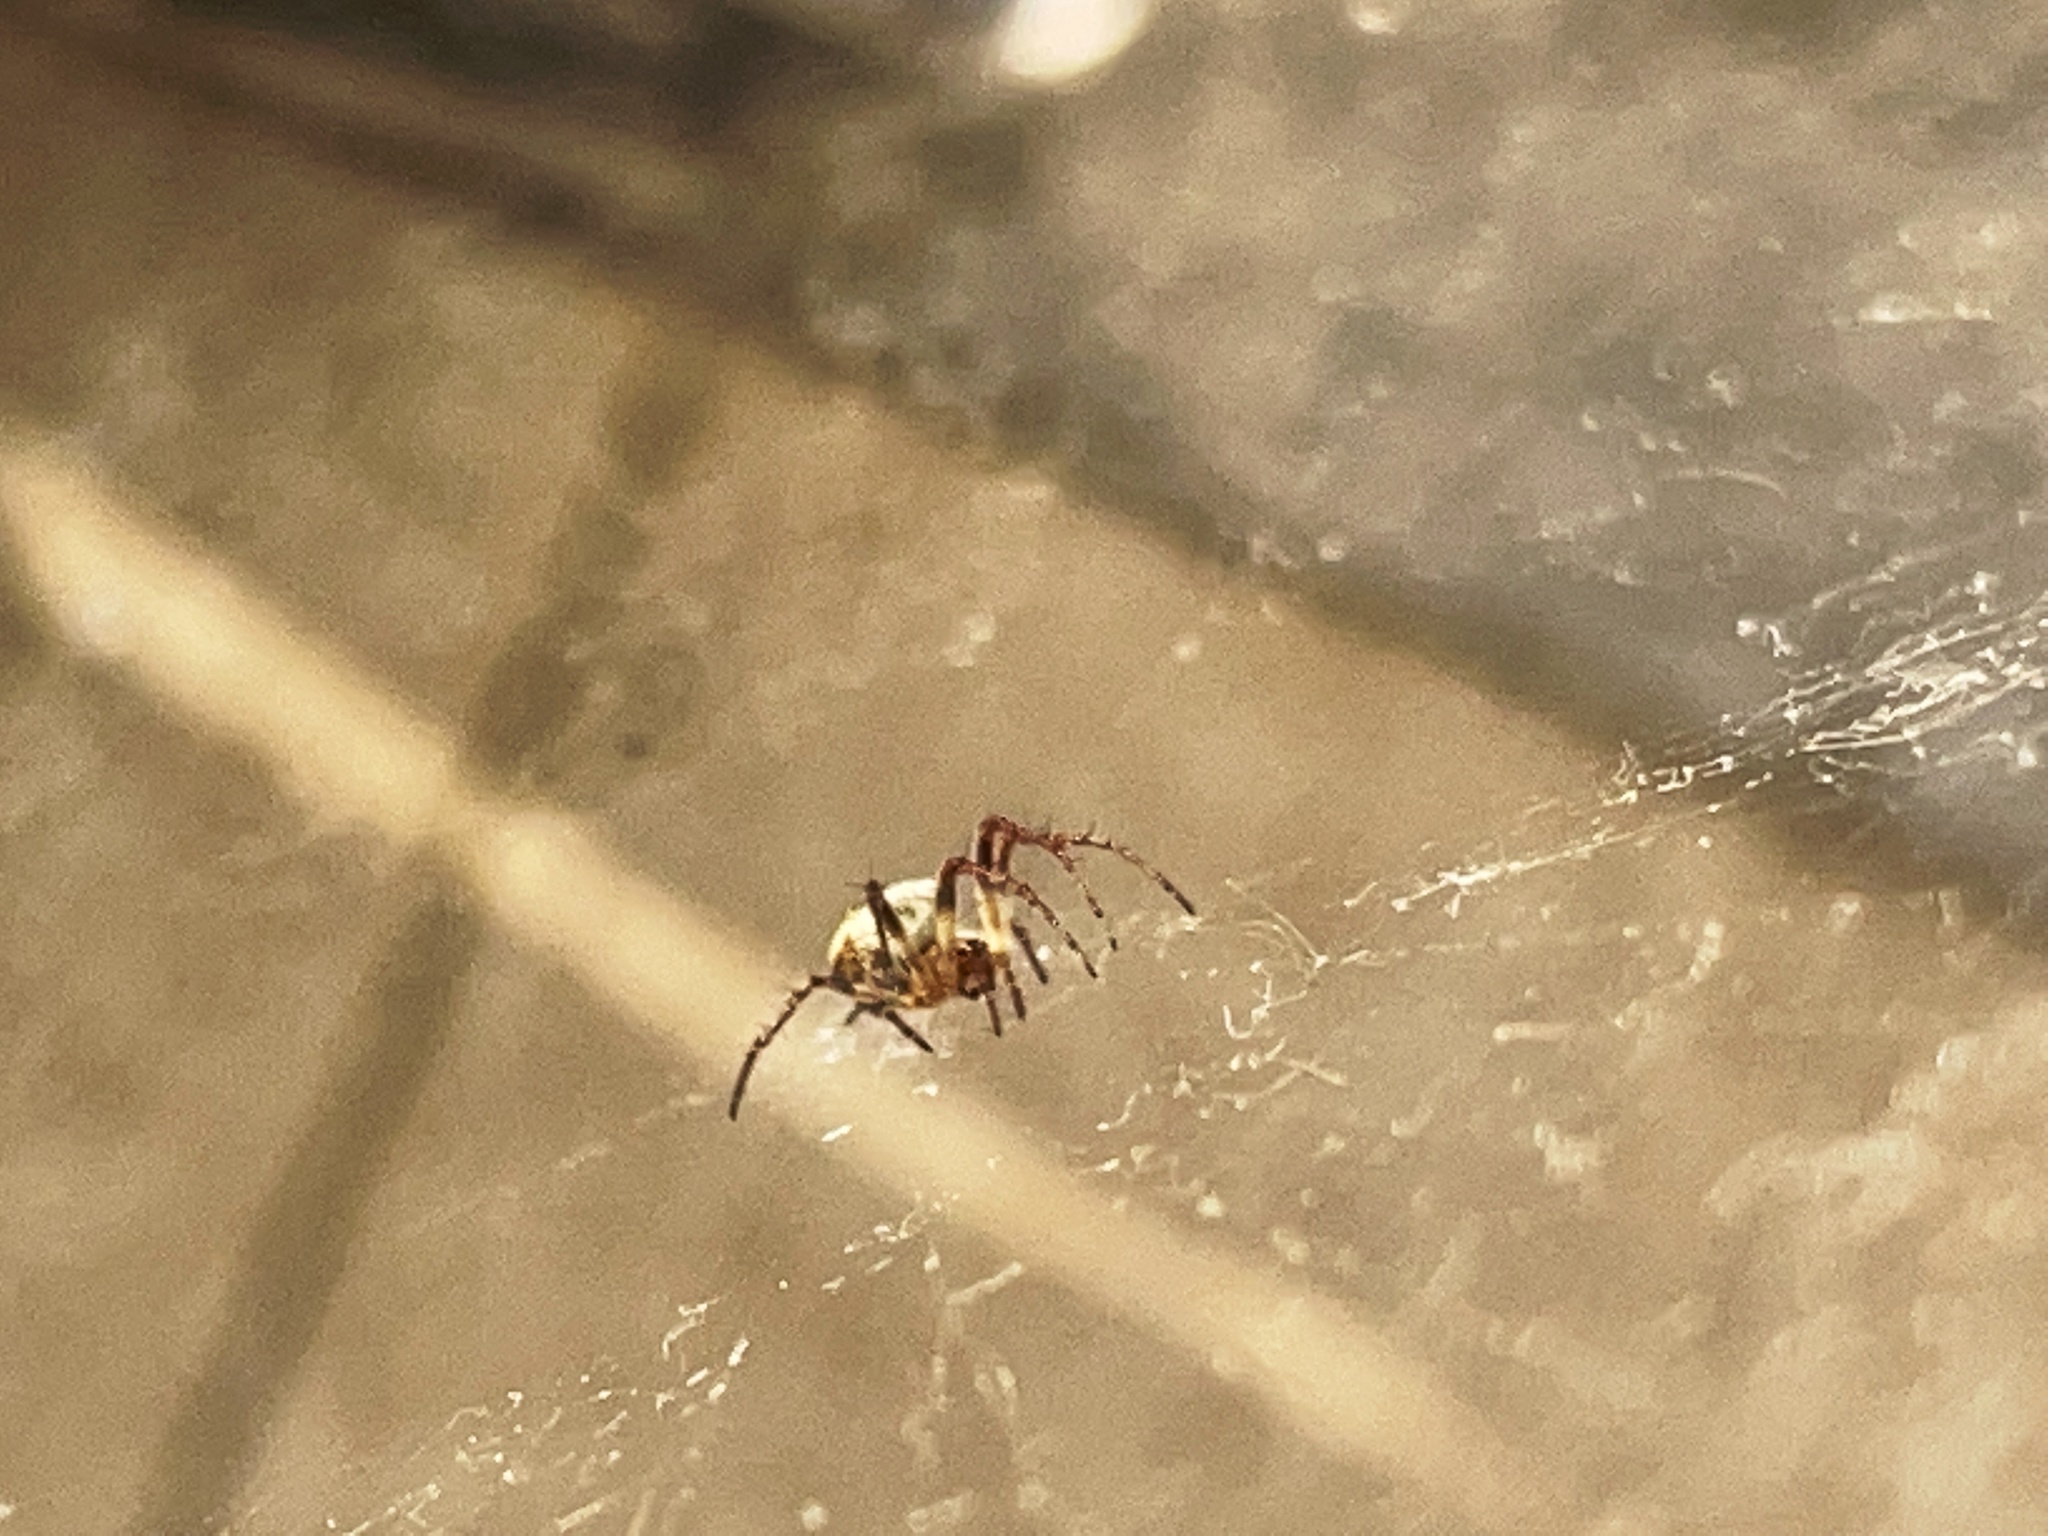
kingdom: Animalia
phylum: Arthropoda
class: Arachnida
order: Araneae
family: Araneidae
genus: Zilla
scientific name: Zilla diodia
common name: Zilla diodia
